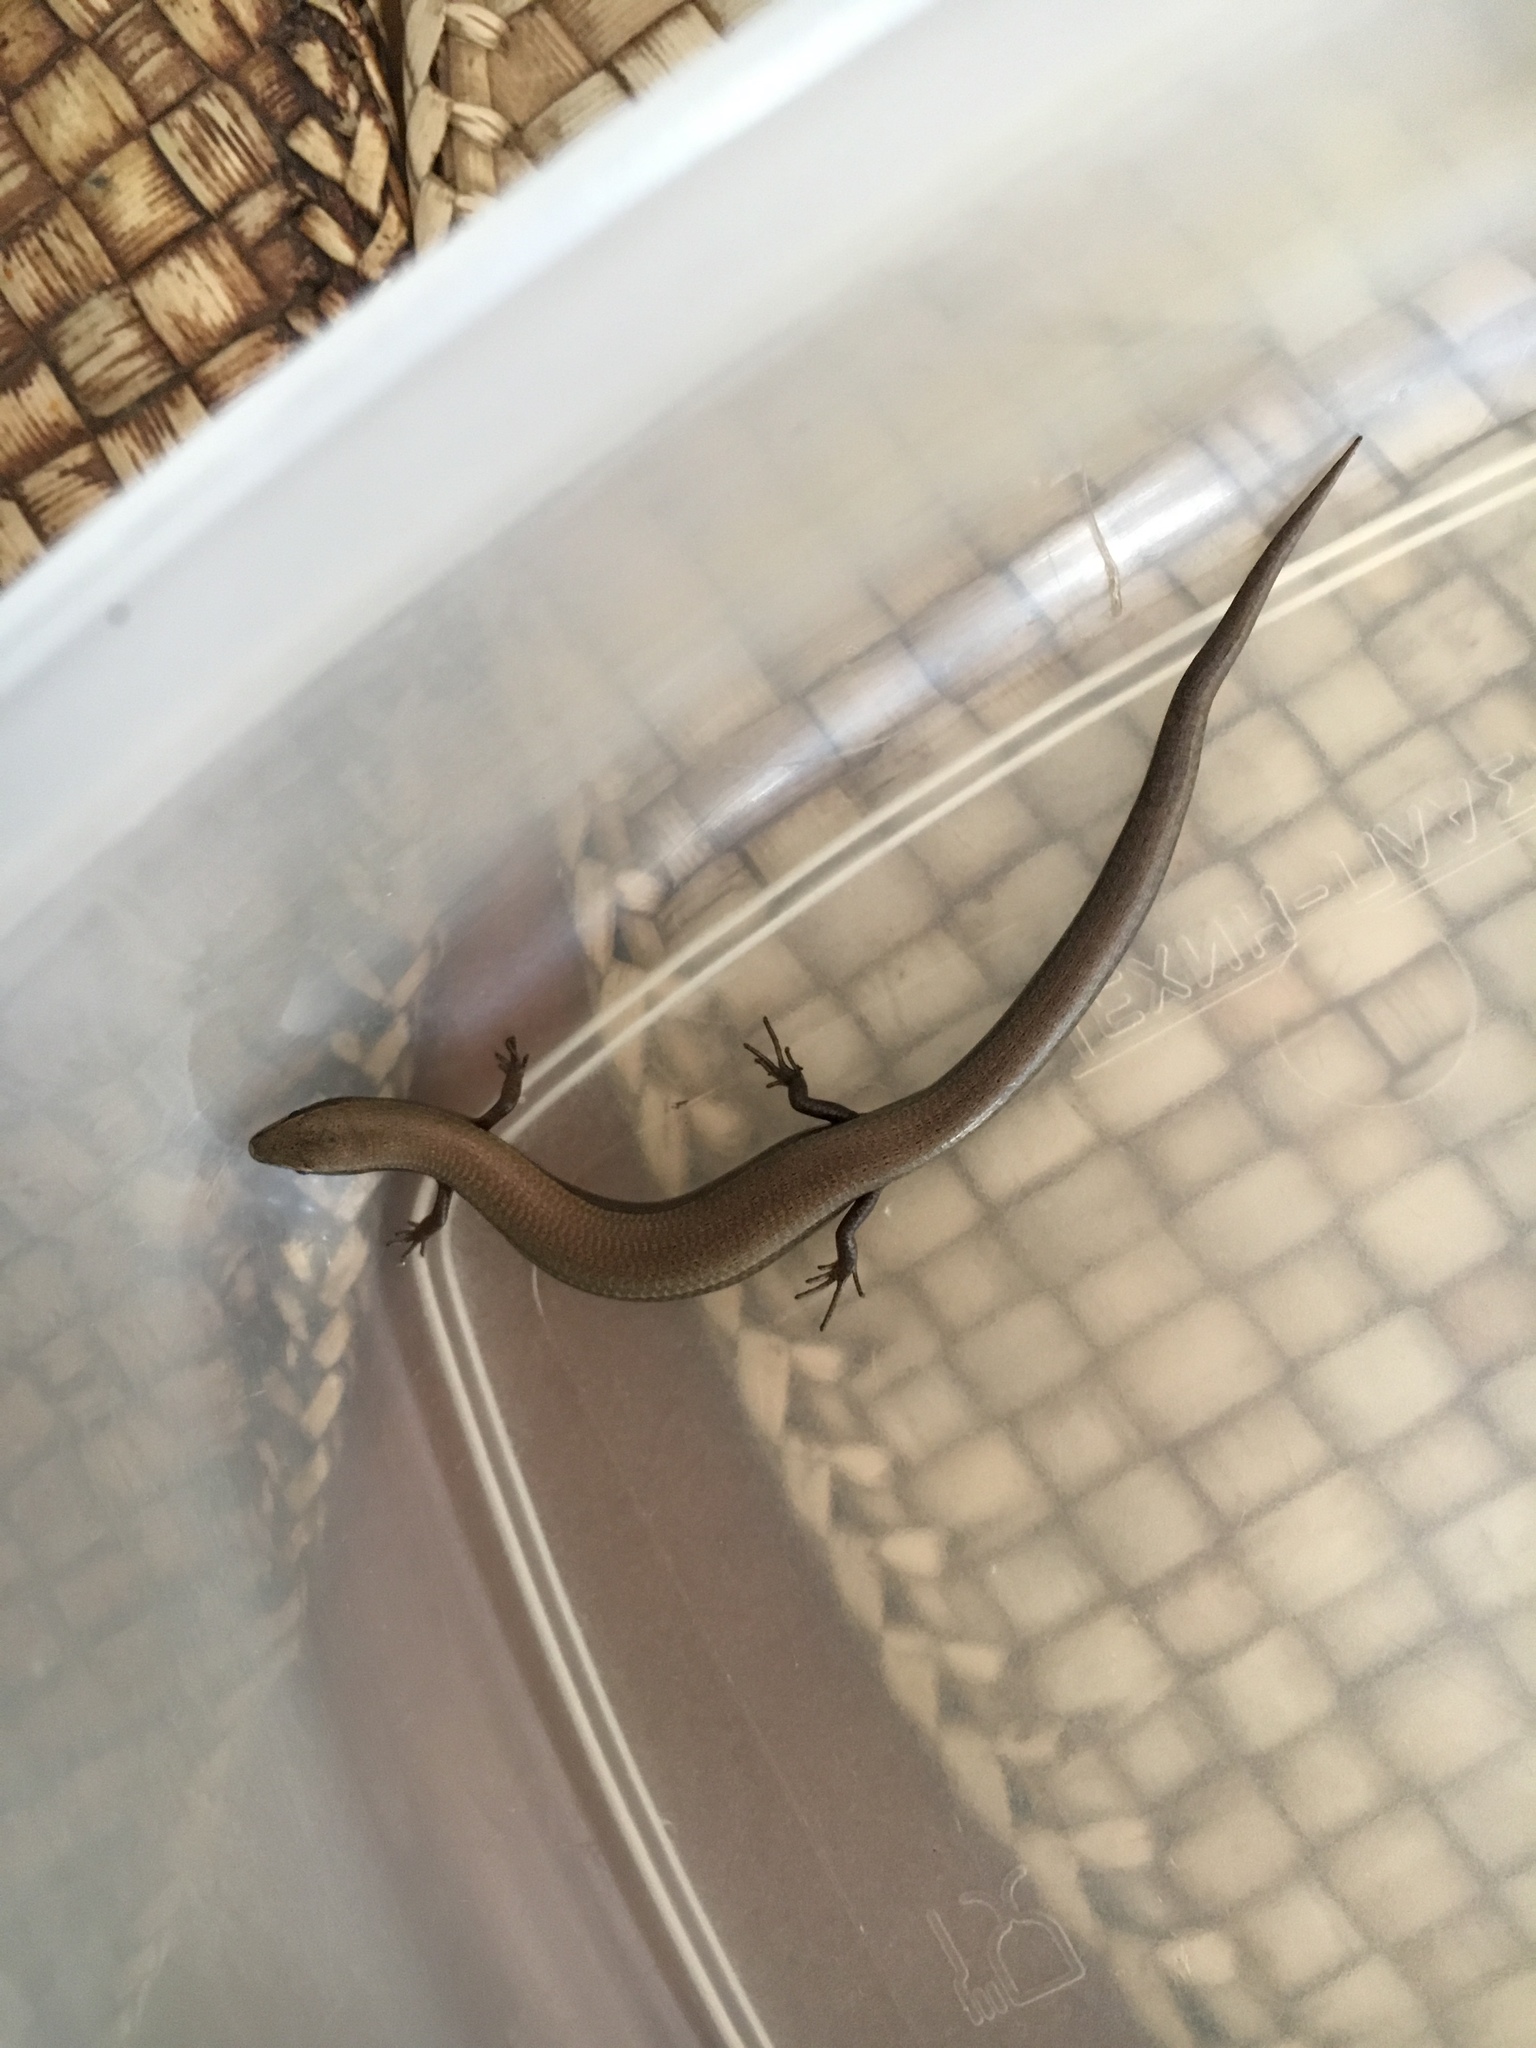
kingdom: Animalia
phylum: Chordata
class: Squamata
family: Scincidae
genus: Ablepharus
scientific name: Ablepharus kitaibelii
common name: Juniper skink
